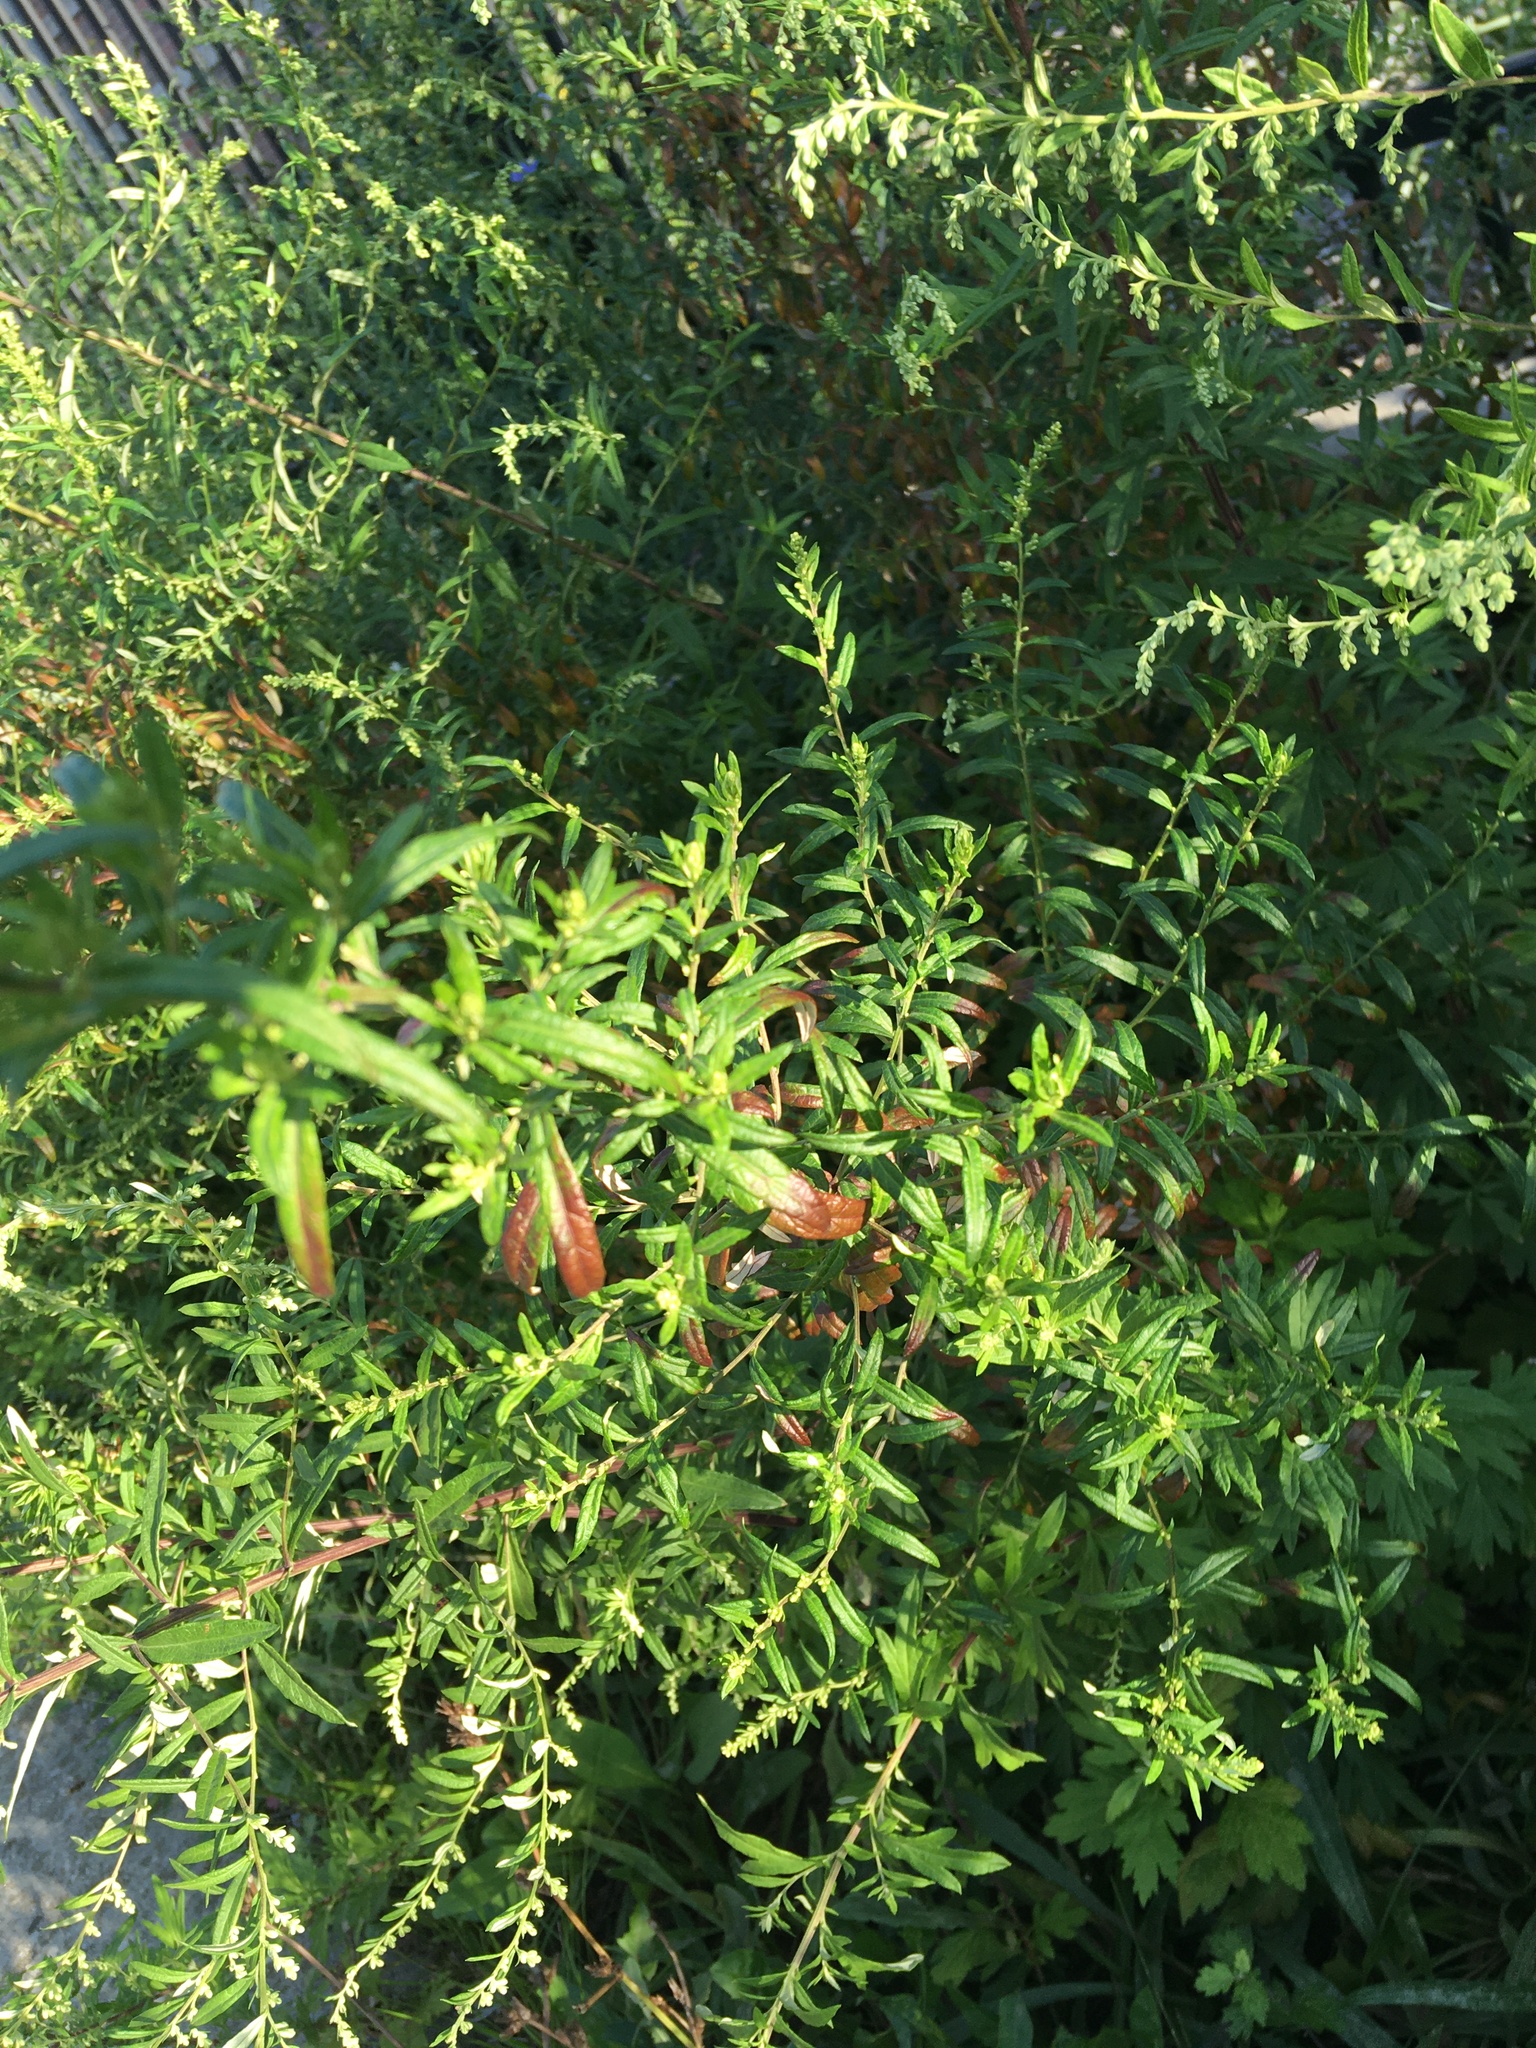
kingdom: Plantae
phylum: Tracheophyta
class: Magnoliopsida
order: Asterales
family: Asteraceae
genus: Artemisia
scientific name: Artemisia vulgaris
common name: Mugwort
